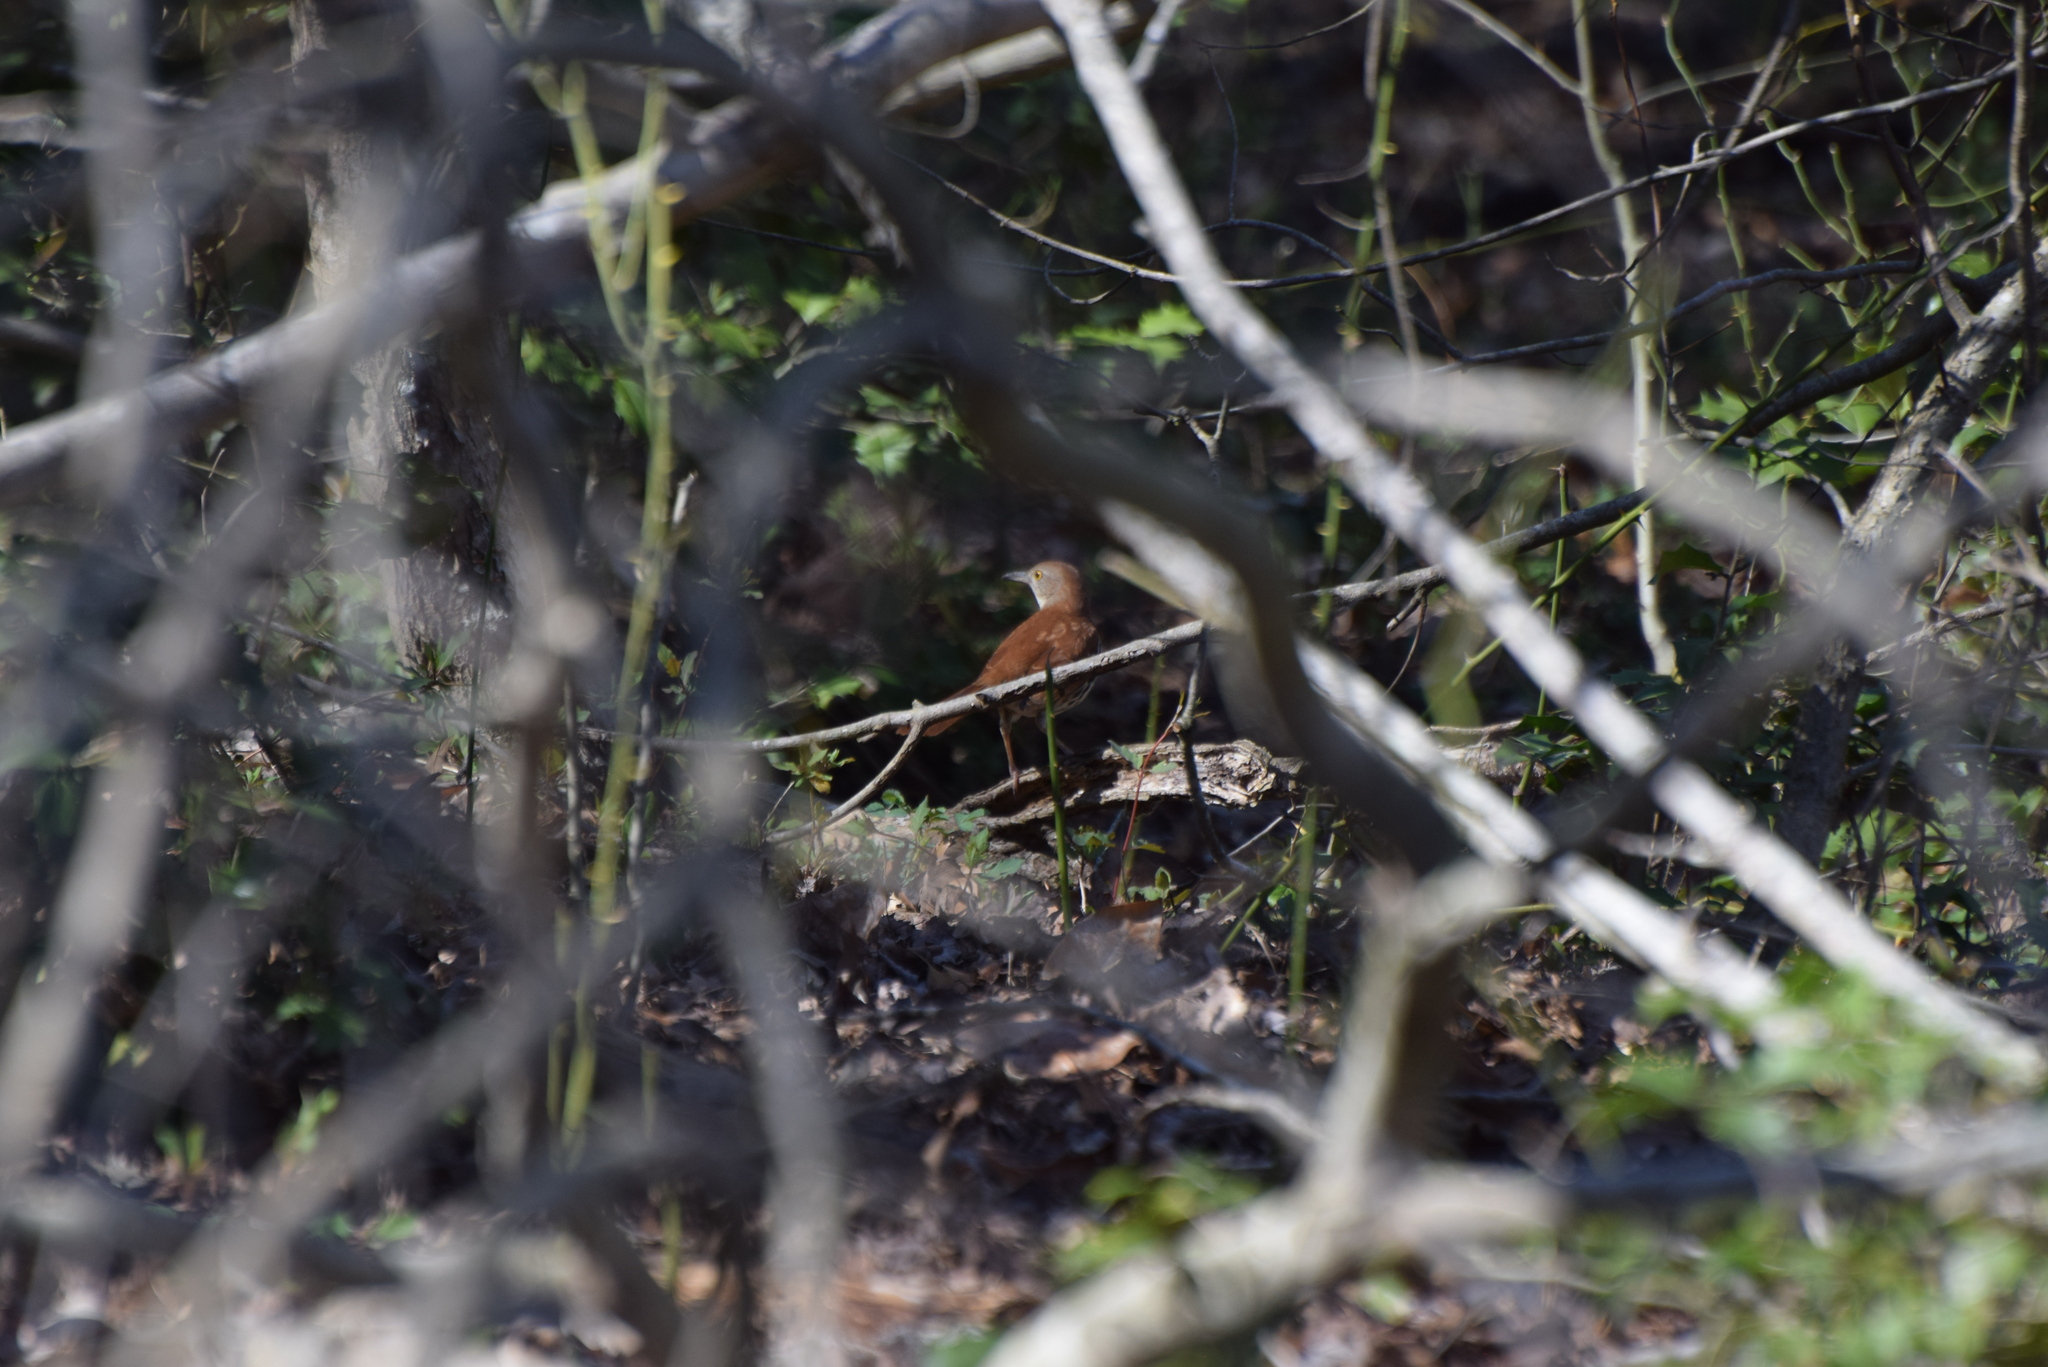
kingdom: Animalia
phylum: Chordata
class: Aves
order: Passeriformes
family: Mimidae
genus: Toxostoma
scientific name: Toxostoma rufum
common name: Brown thrasher
